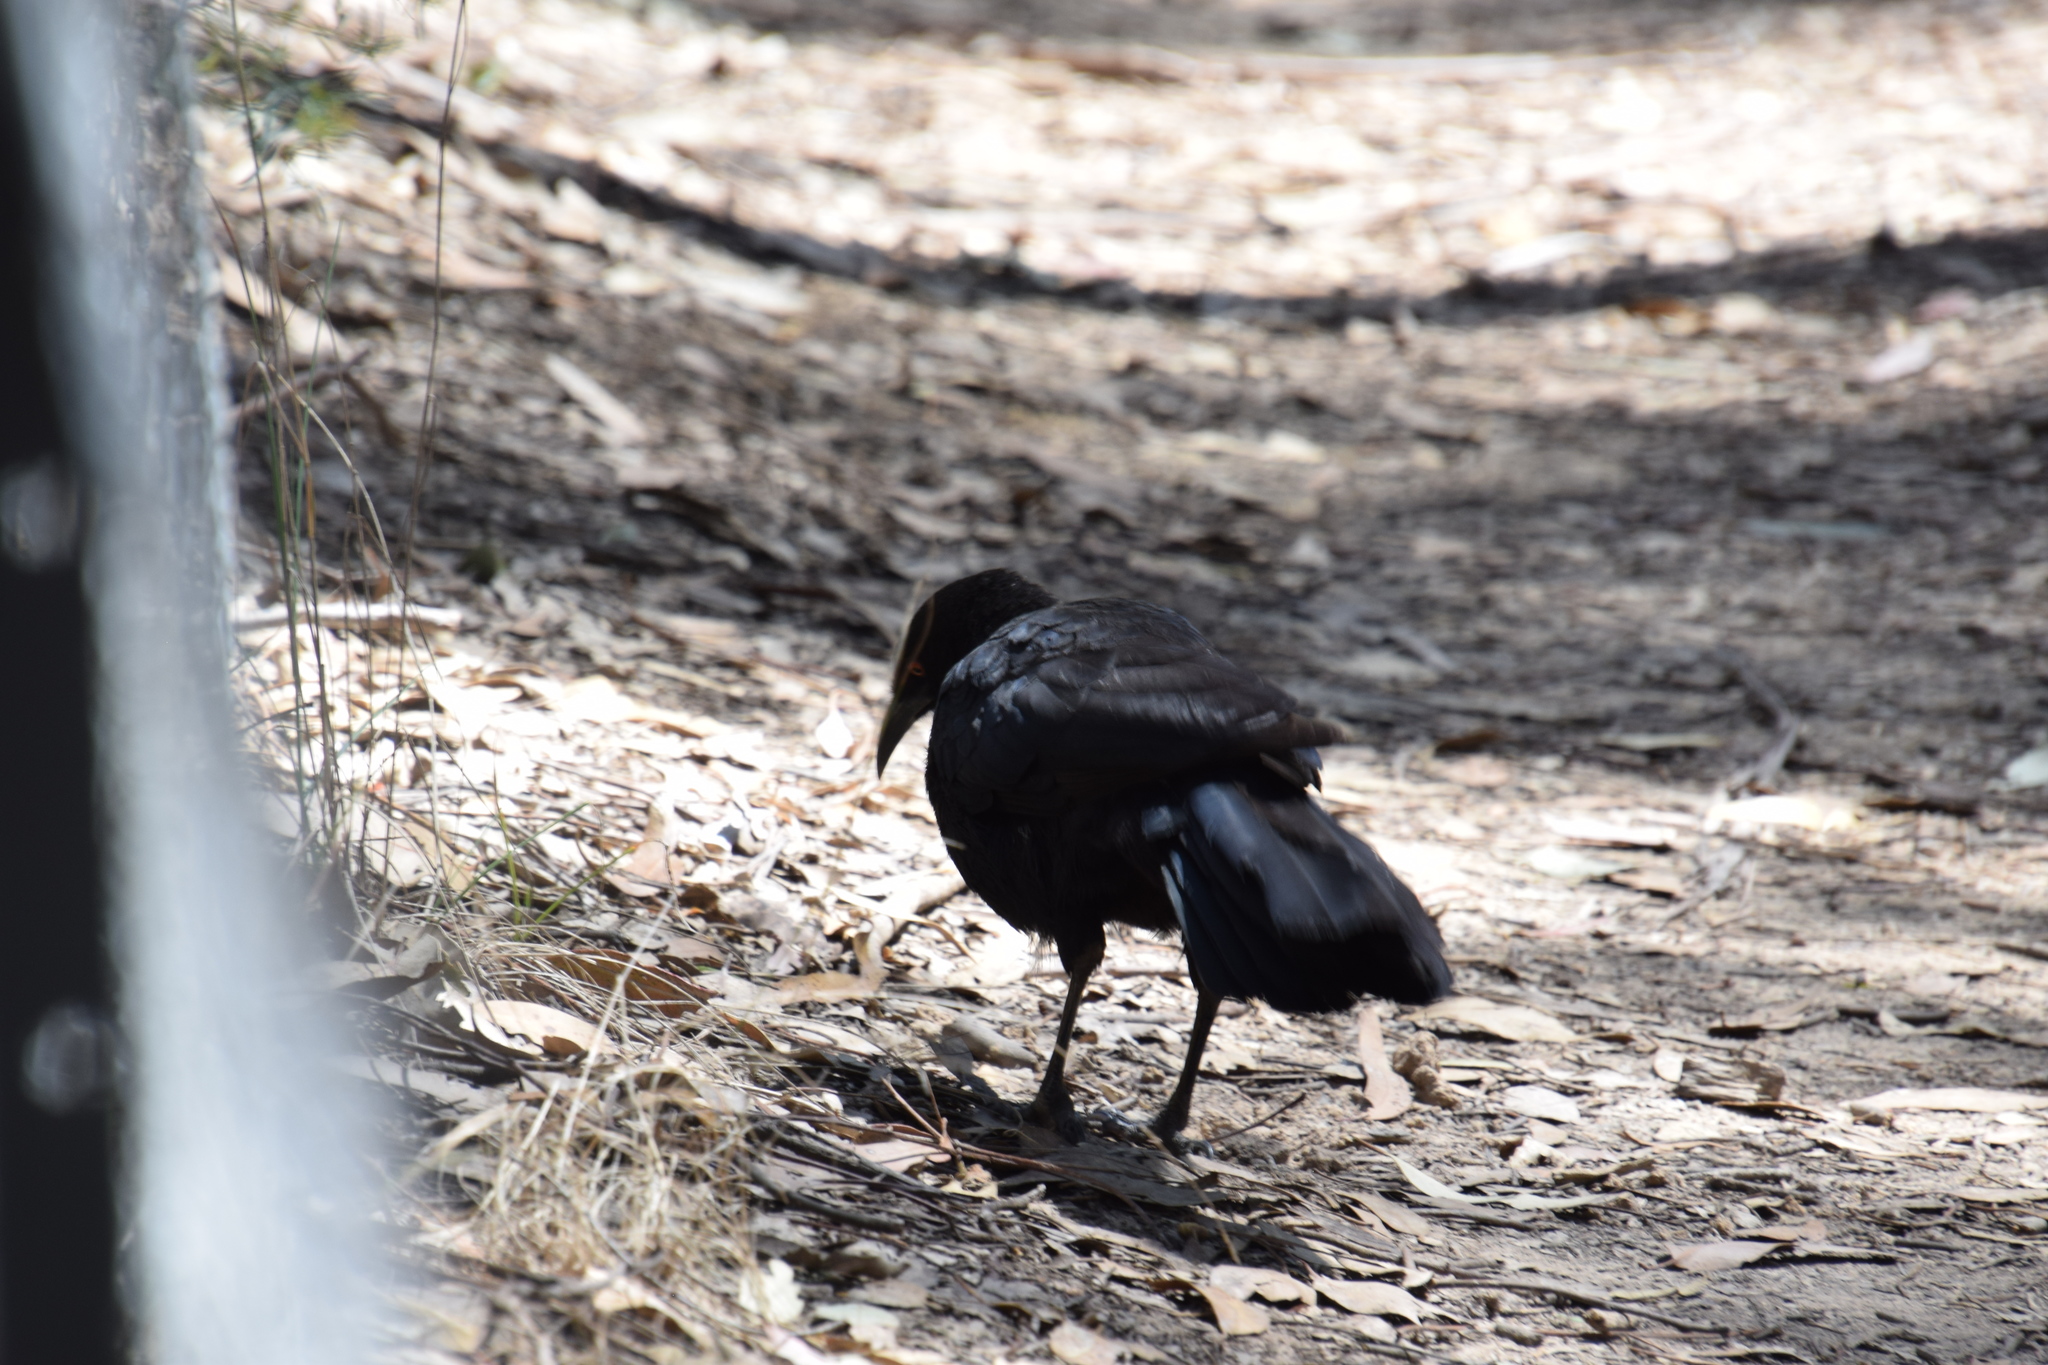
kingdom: Animalia
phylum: Chordata
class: Aves
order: Passeriformes
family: Corcoracidae
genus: Corcorax
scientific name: Corcorax melanoramphos
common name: White-winged chough
